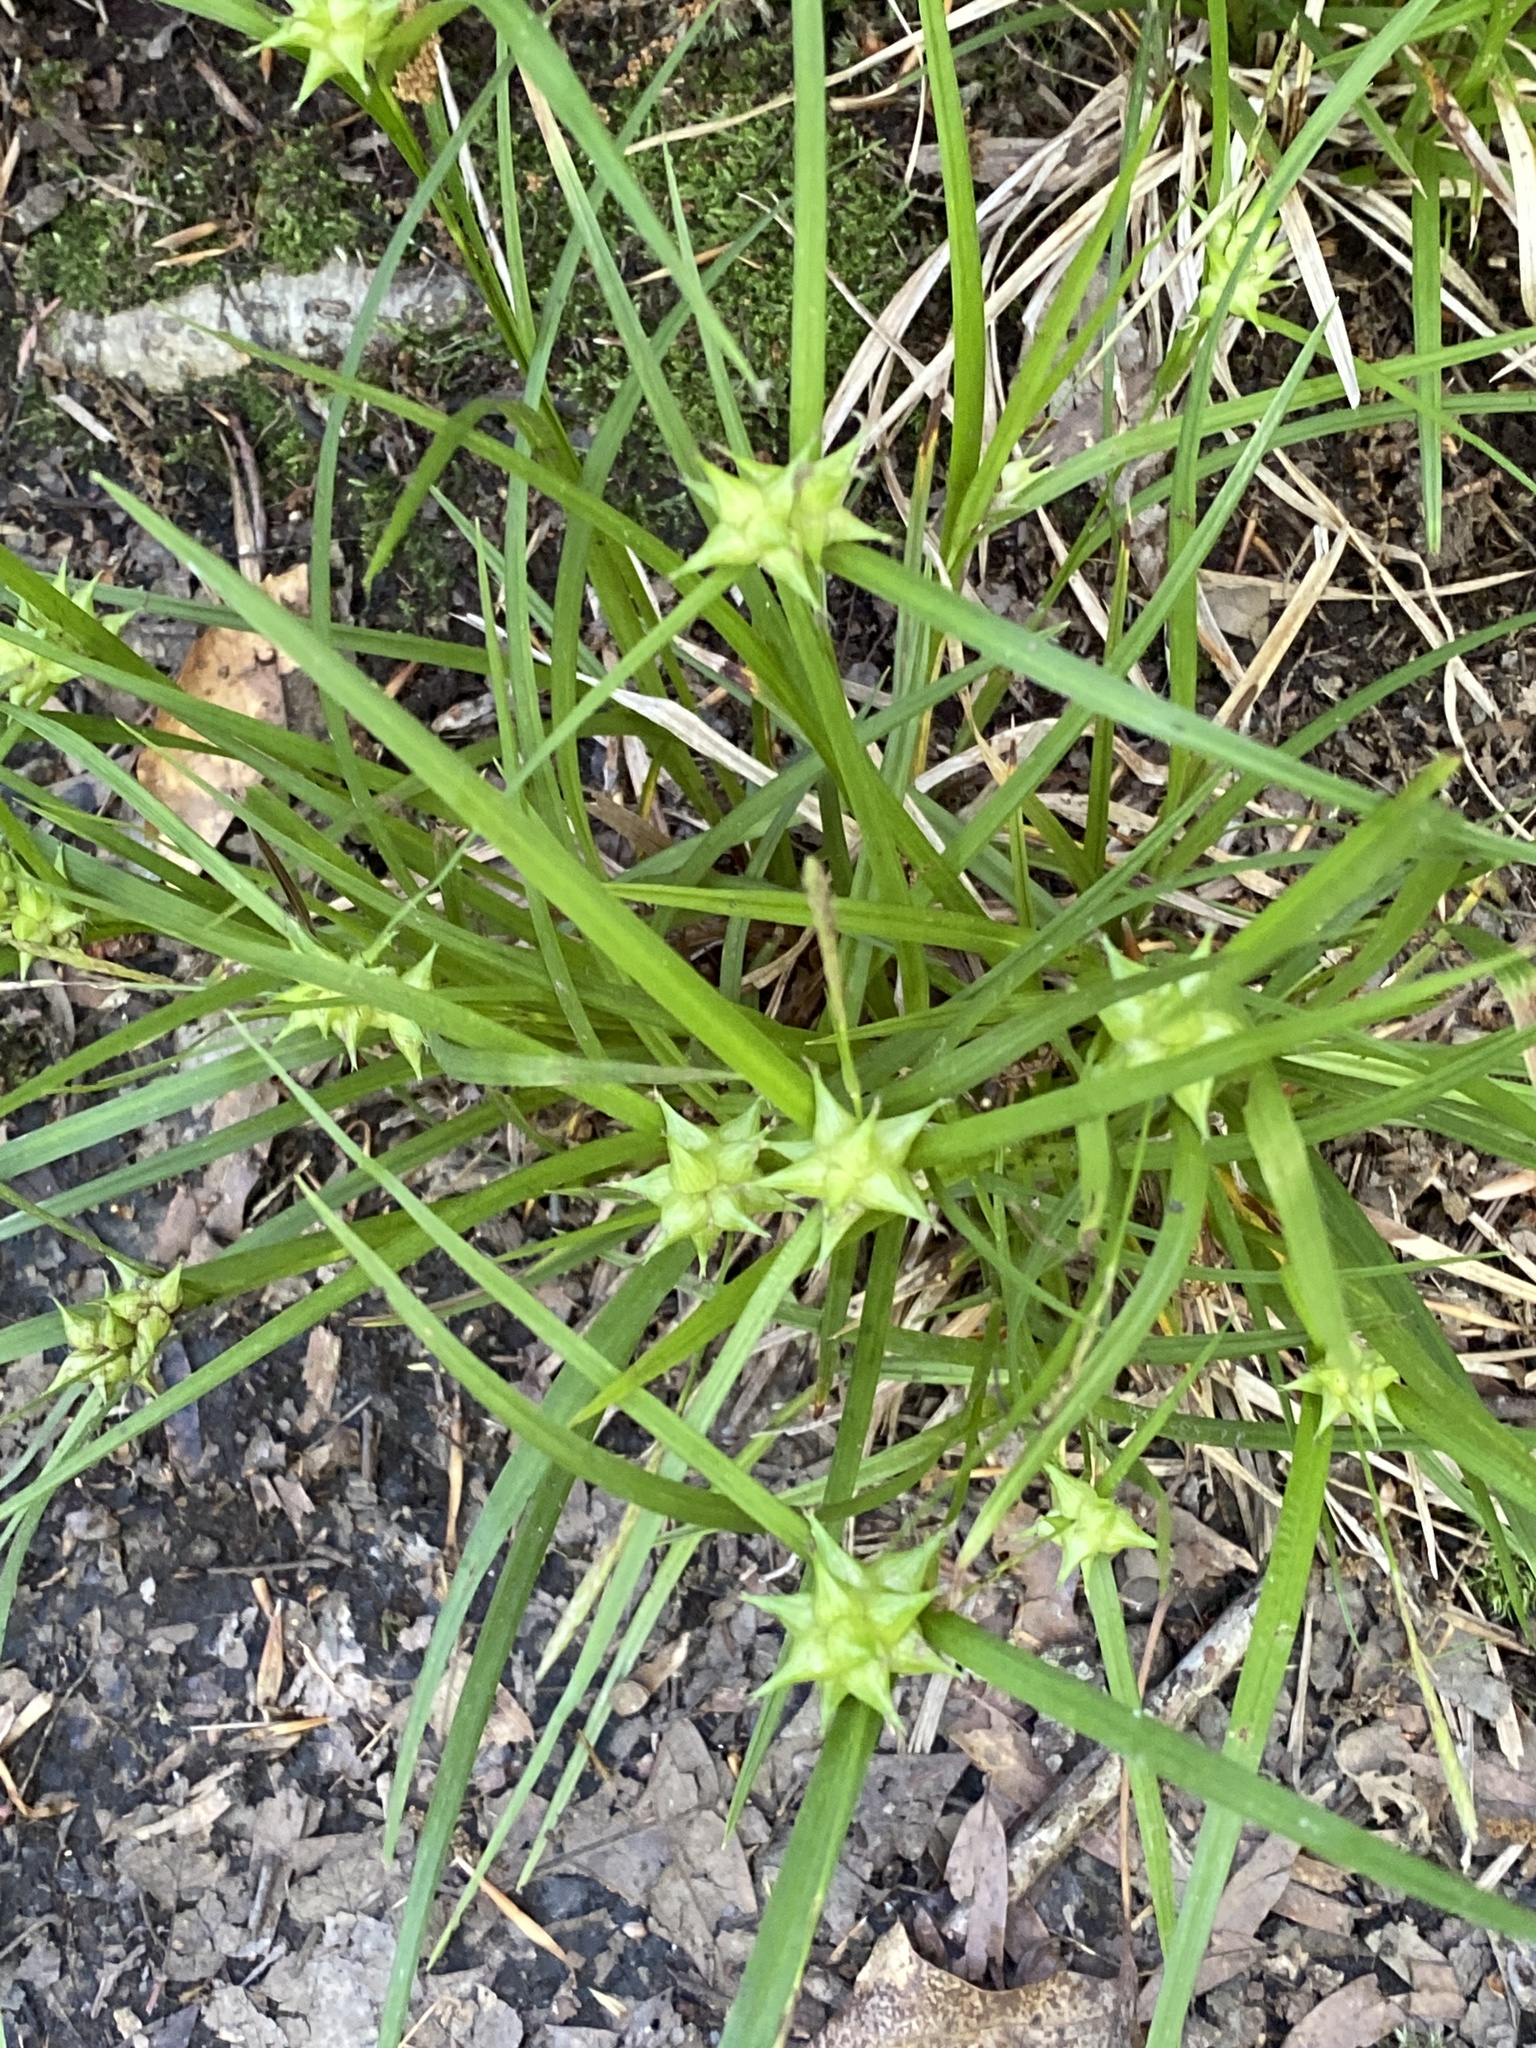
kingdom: Plantae
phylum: Tracheophyta
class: Liliopsida
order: Poales
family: Cyperaceae
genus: Carex
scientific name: Carex intumescens
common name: Greater bladder sedge
